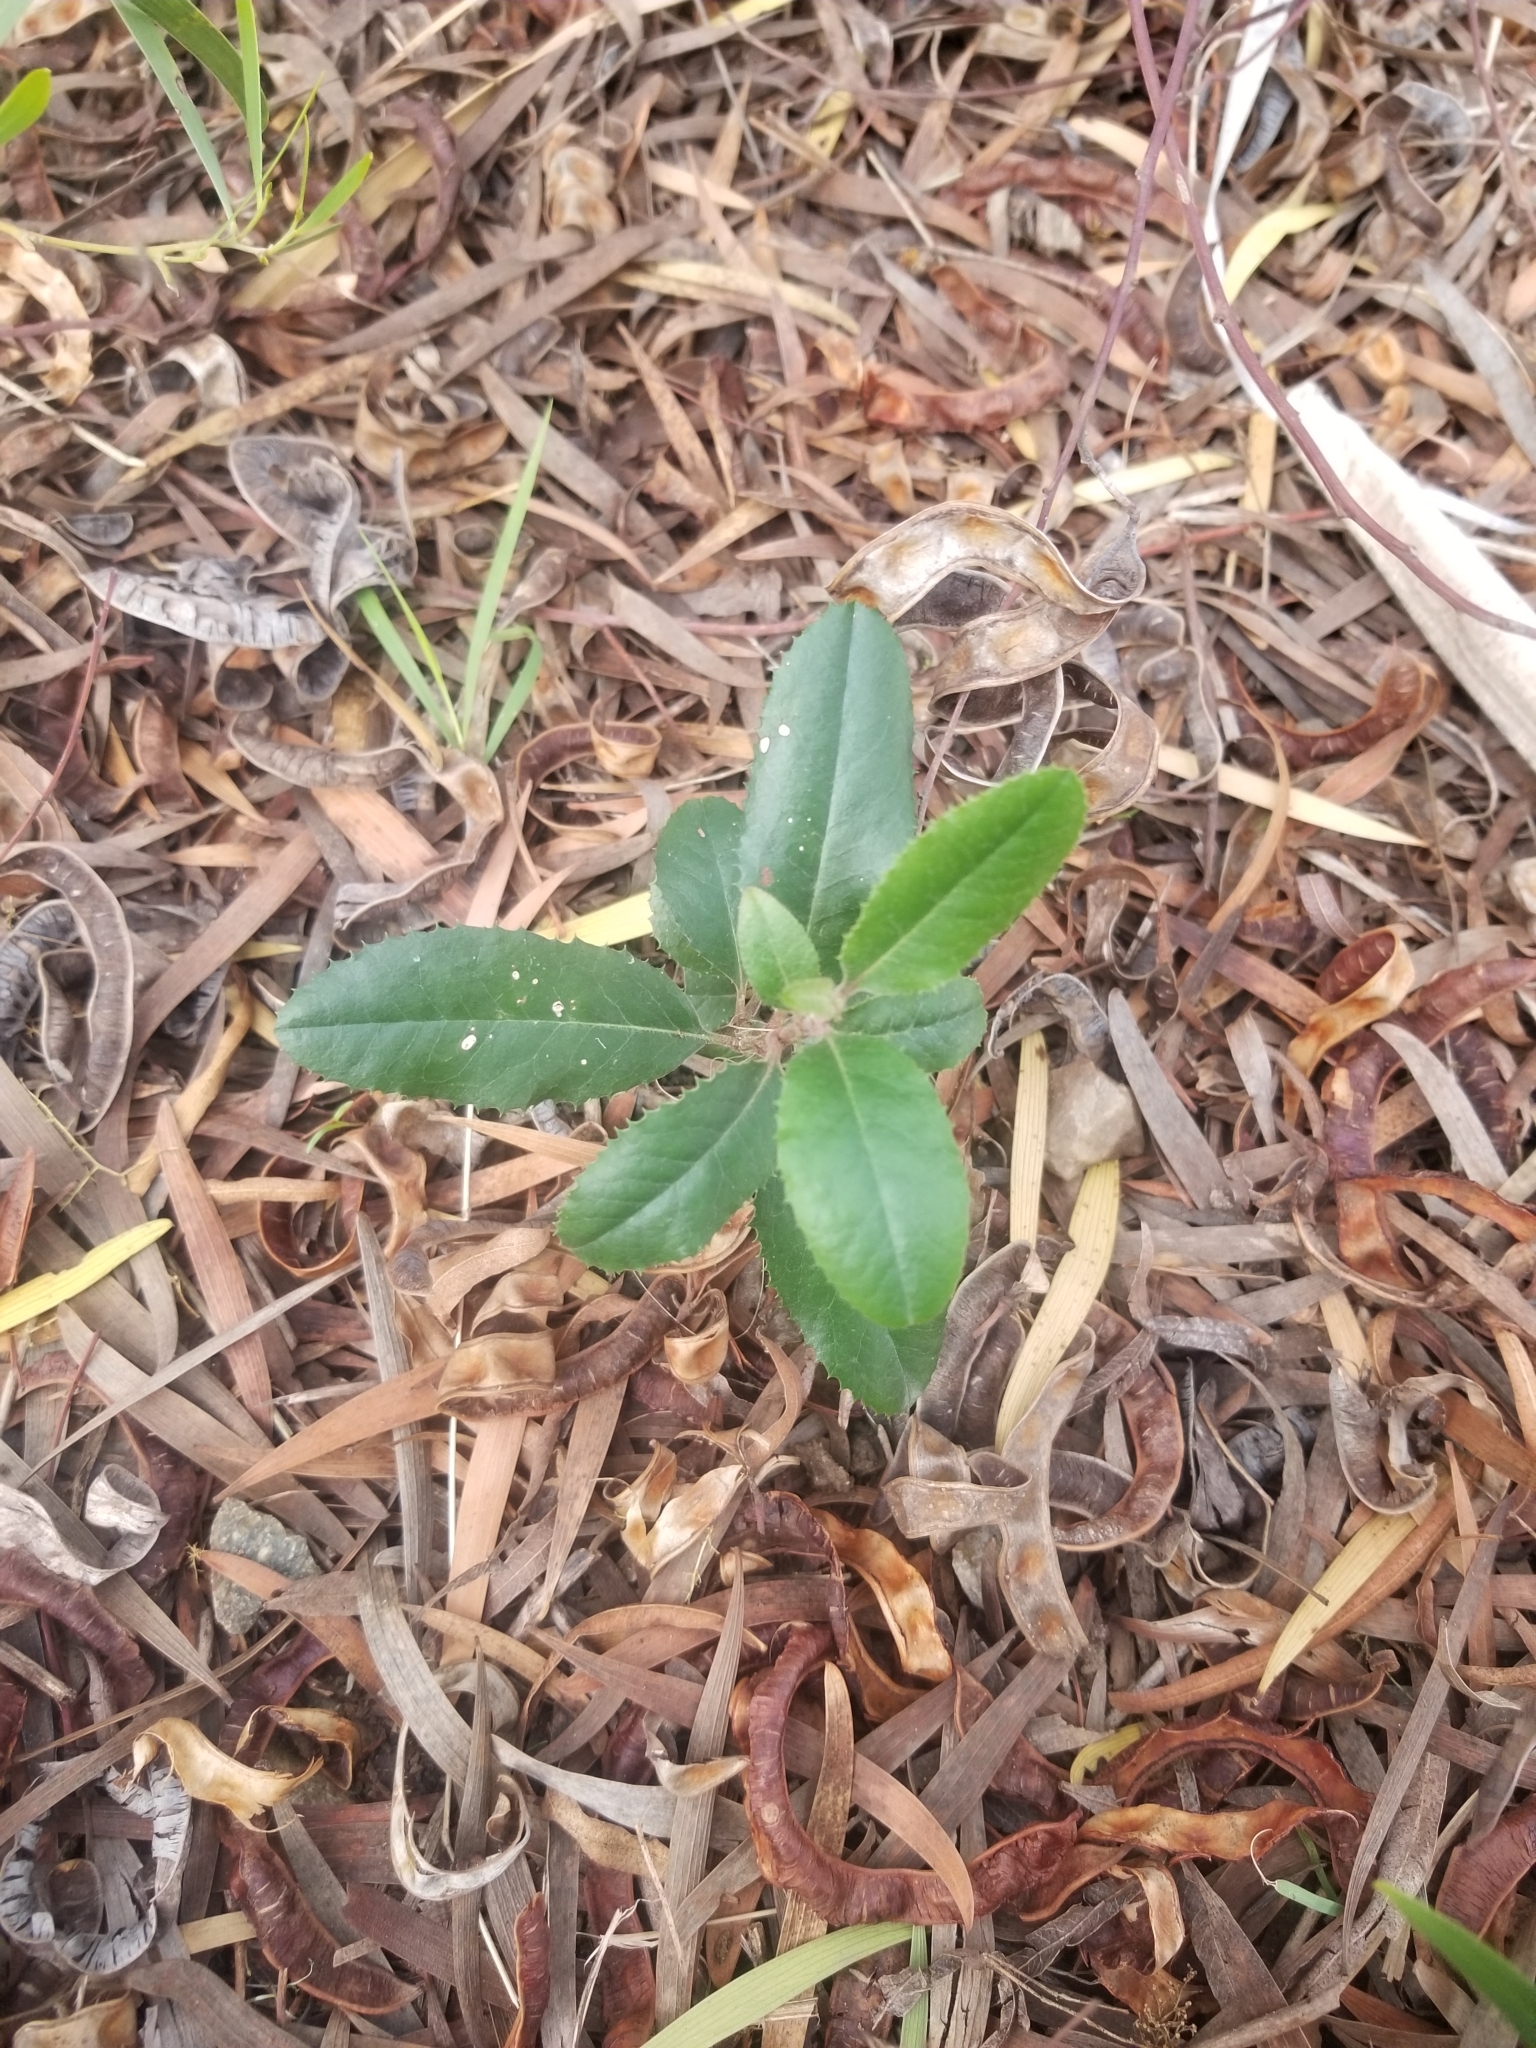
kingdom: Plantae
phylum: Tracheophyta
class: Magnoliopsida
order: Rosales
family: Rosaceae
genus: Heteromeles
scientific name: Heteromeles arbutifolia
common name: California-holly
